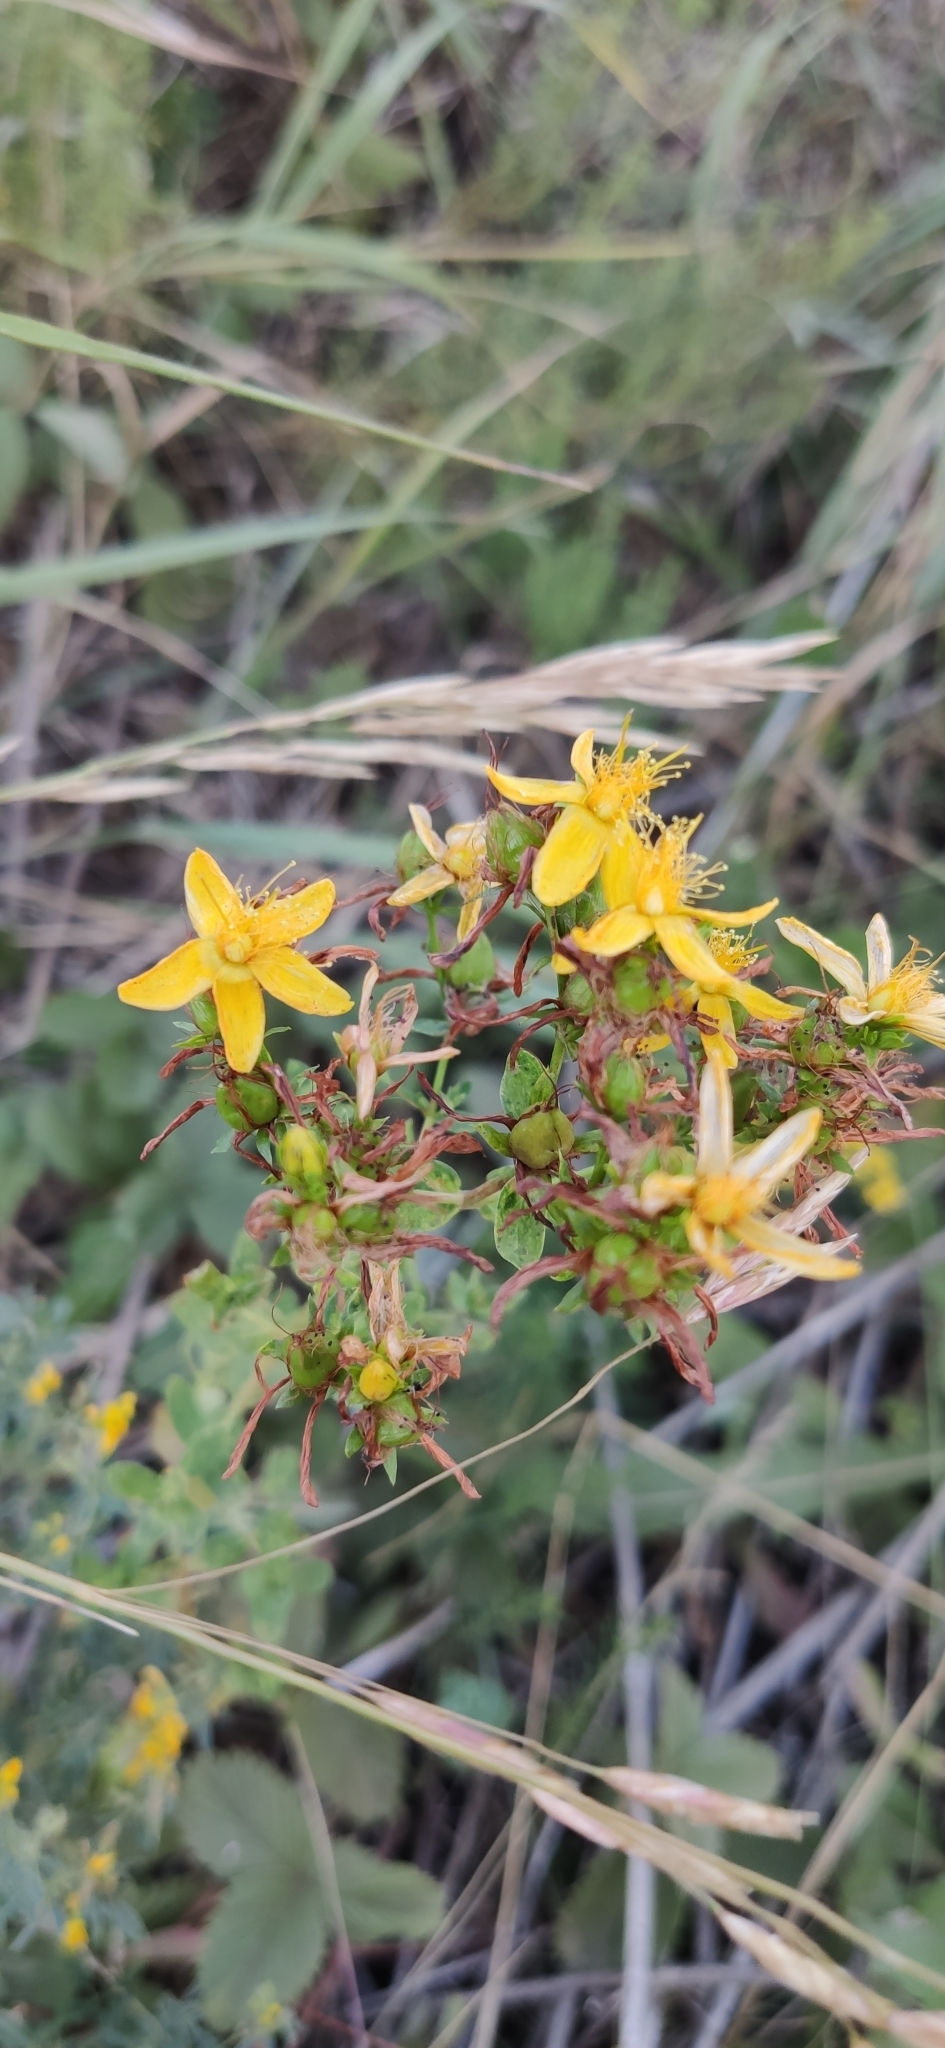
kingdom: Plantae
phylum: Tracheophyta
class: Magnoliopsida
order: Malpighiales
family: Hypericaceae
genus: Hypericum
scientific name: Hypericum perforatum
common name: Common st. johnswort
